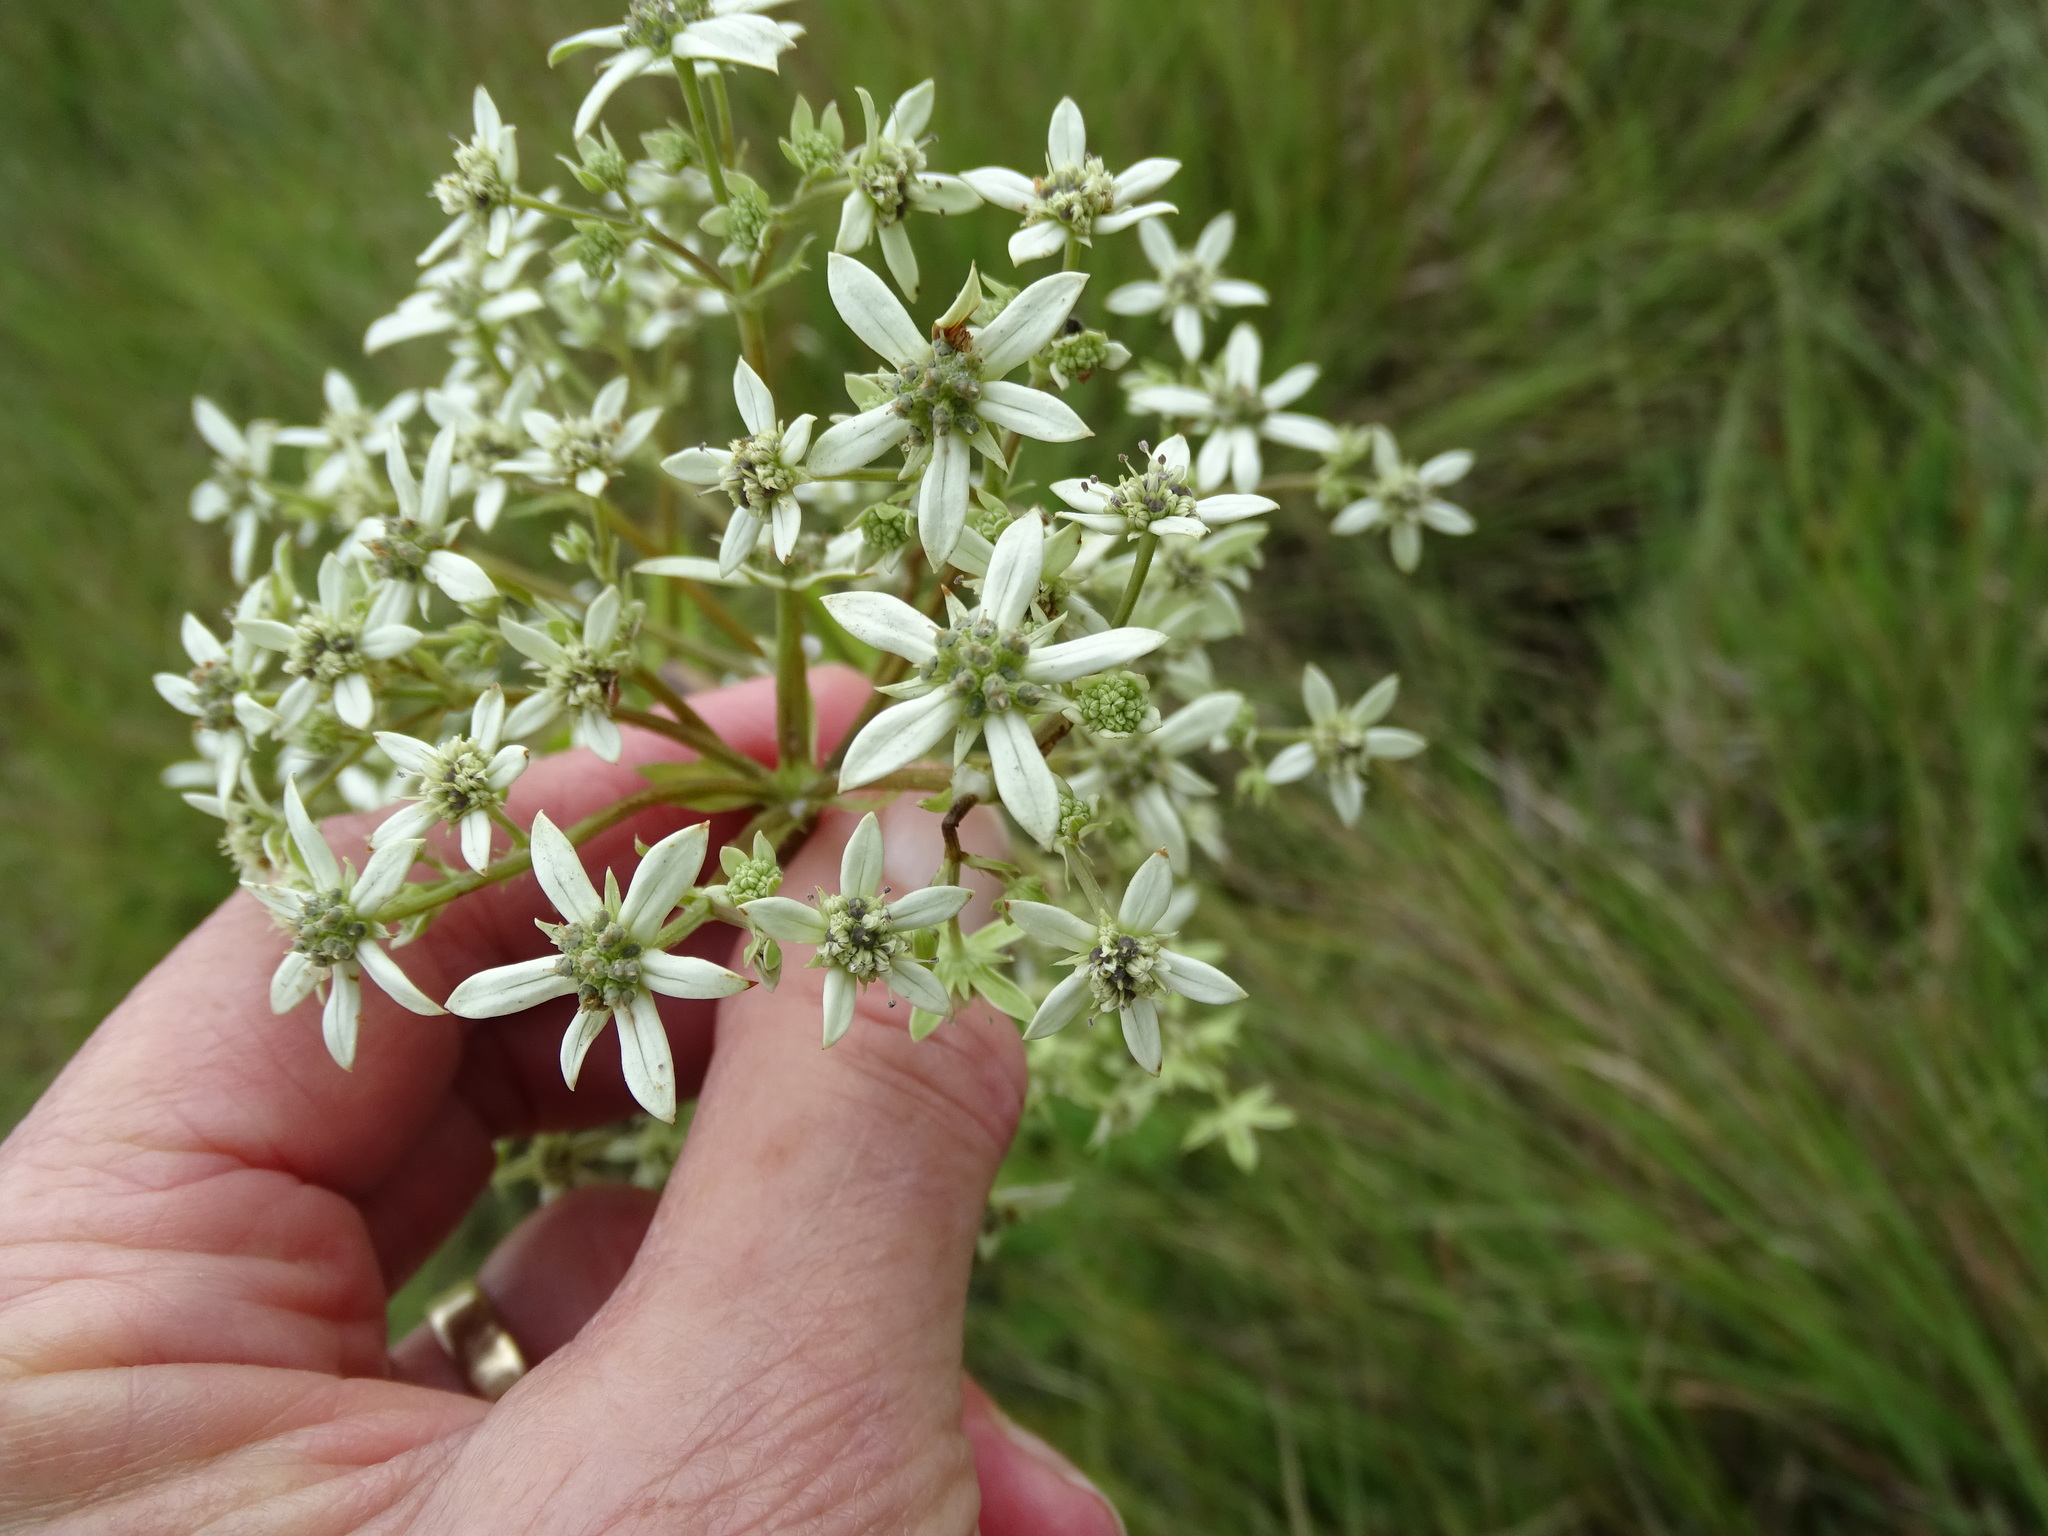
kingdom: Plantae
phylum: Tracheophyta
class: Magnoliopsida
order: Apiales
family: Apiaceae
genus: Alepidea
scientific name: Alepidea cordifolia
